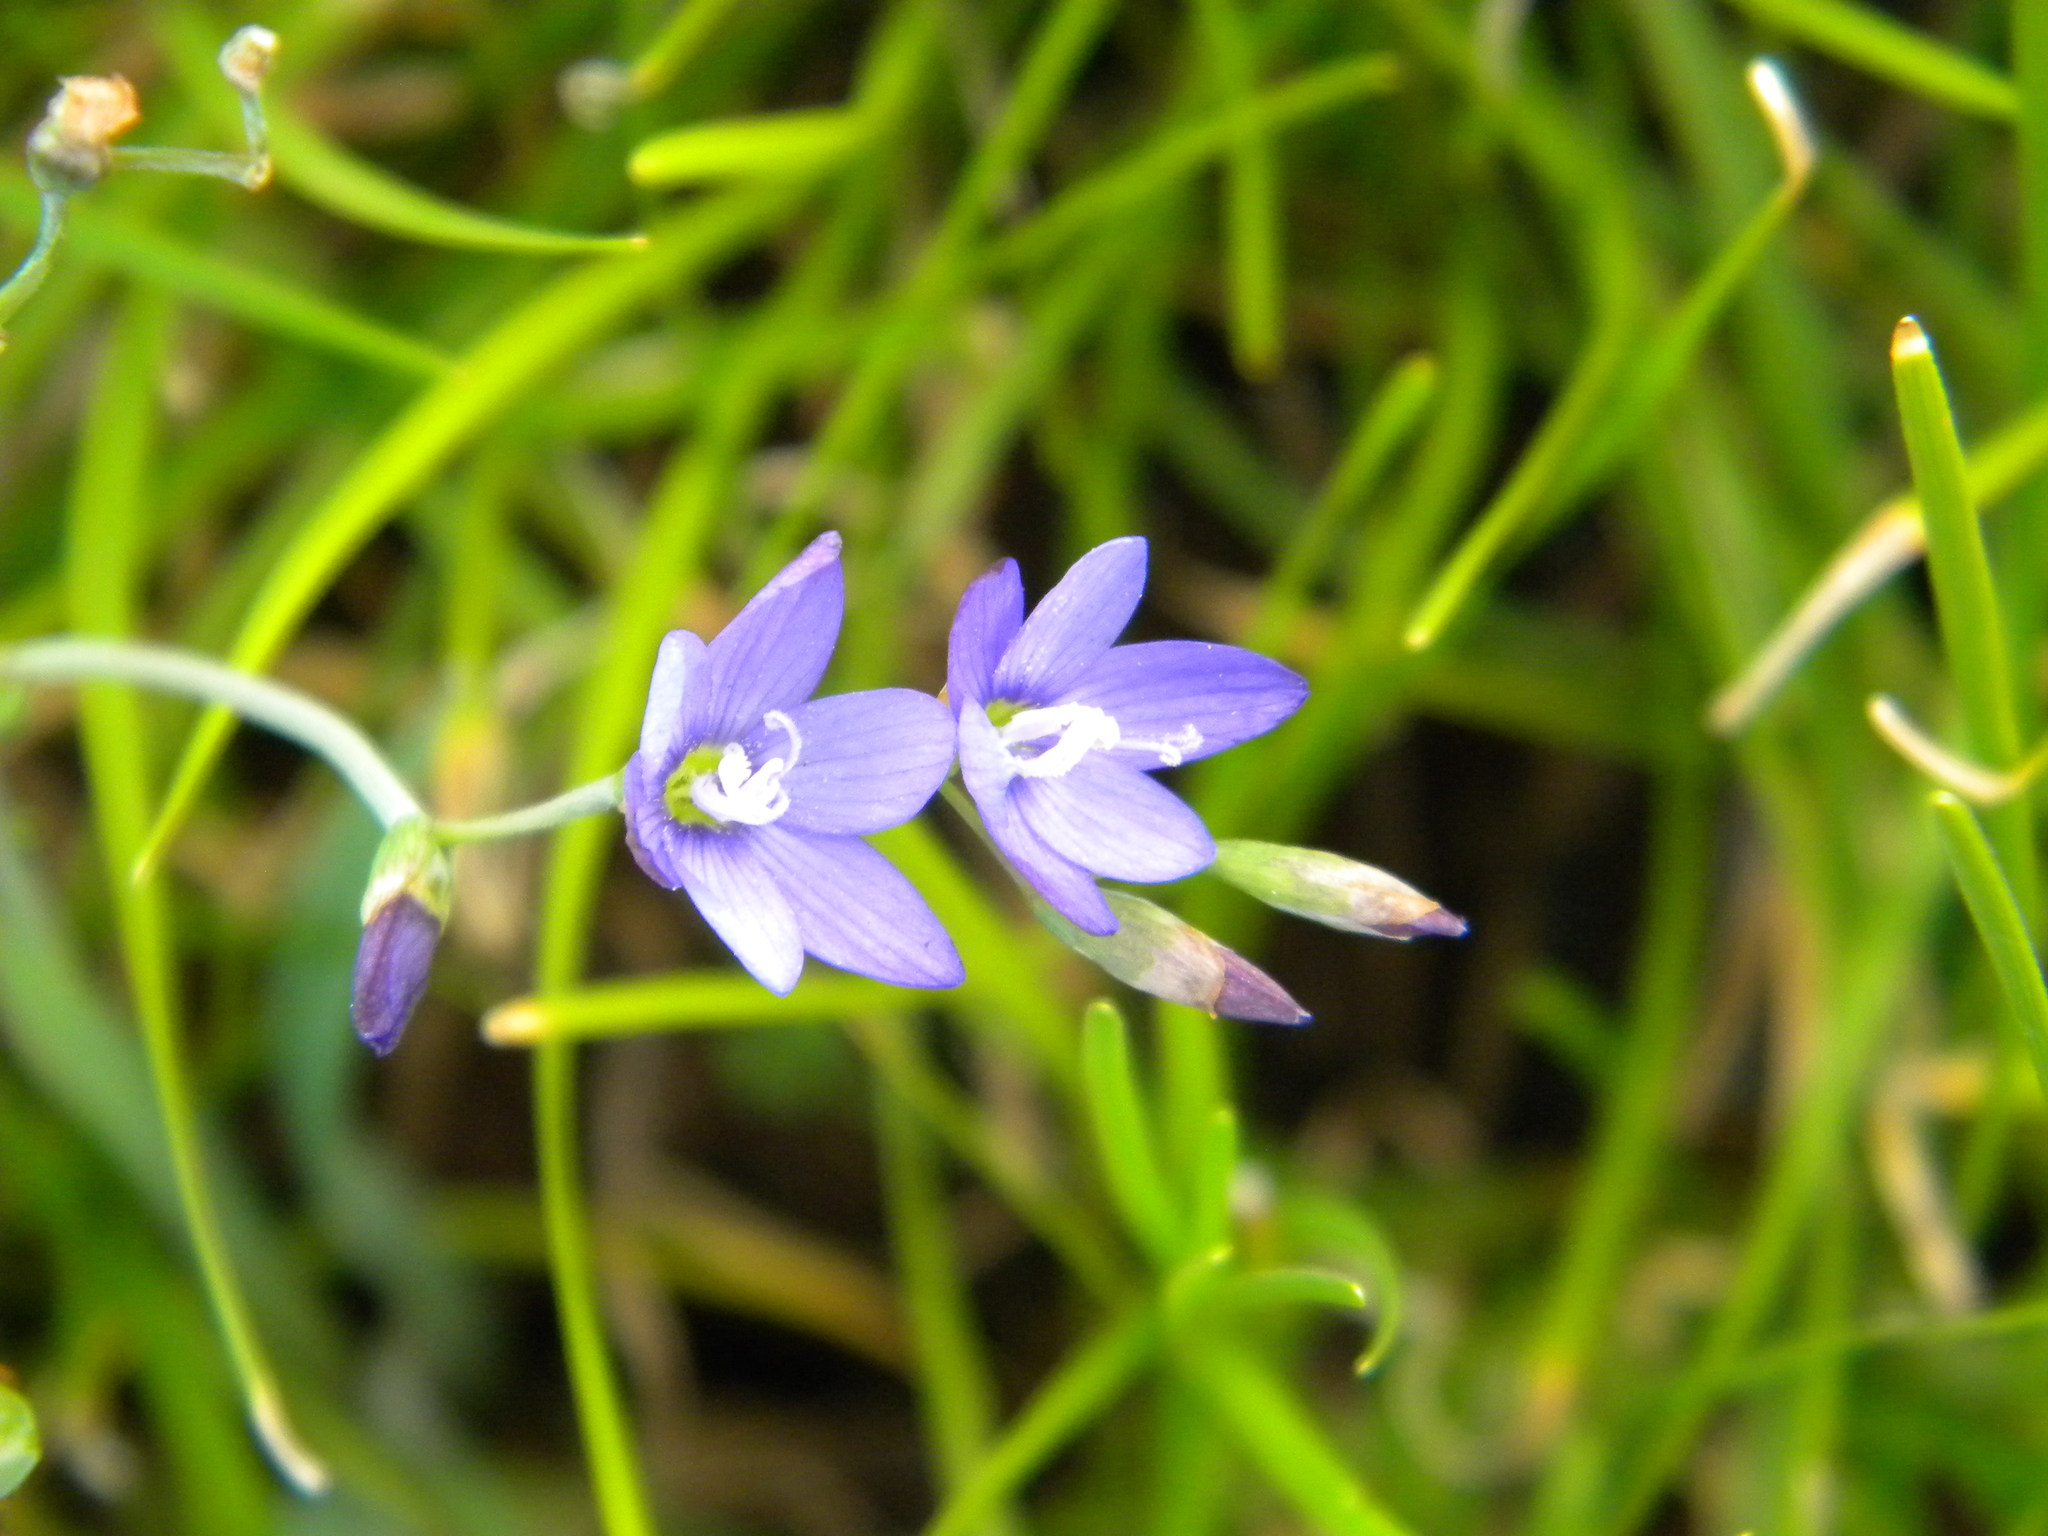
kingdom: Plantae
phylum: Tracheophyta
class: Liliopsida
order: Asparagales
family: Iridaceae
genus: Geissorhiza
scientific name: Geissorhiza aspera
